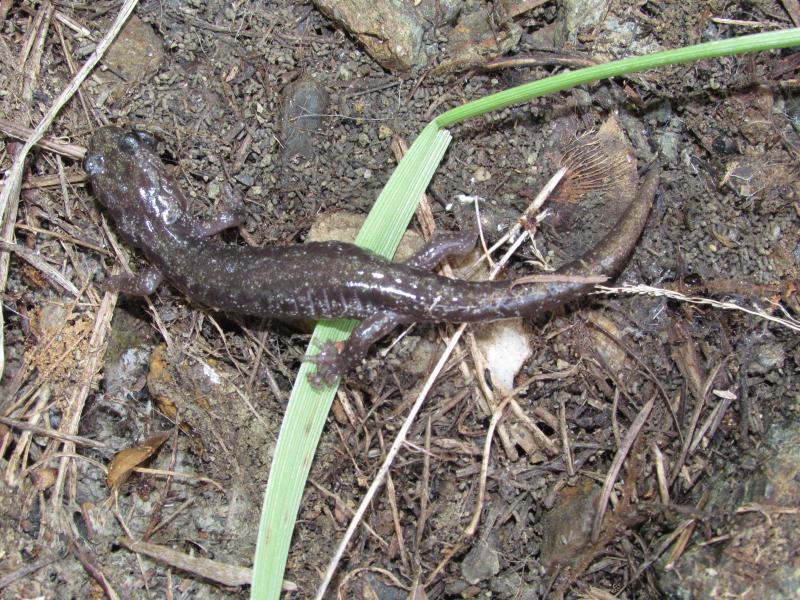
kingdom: Animalia
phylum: Chordata
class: Amphibia
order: Caudata
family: Plethodontidae
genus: Aneides
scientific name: Aneides ferreus
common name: Clouded salamander
